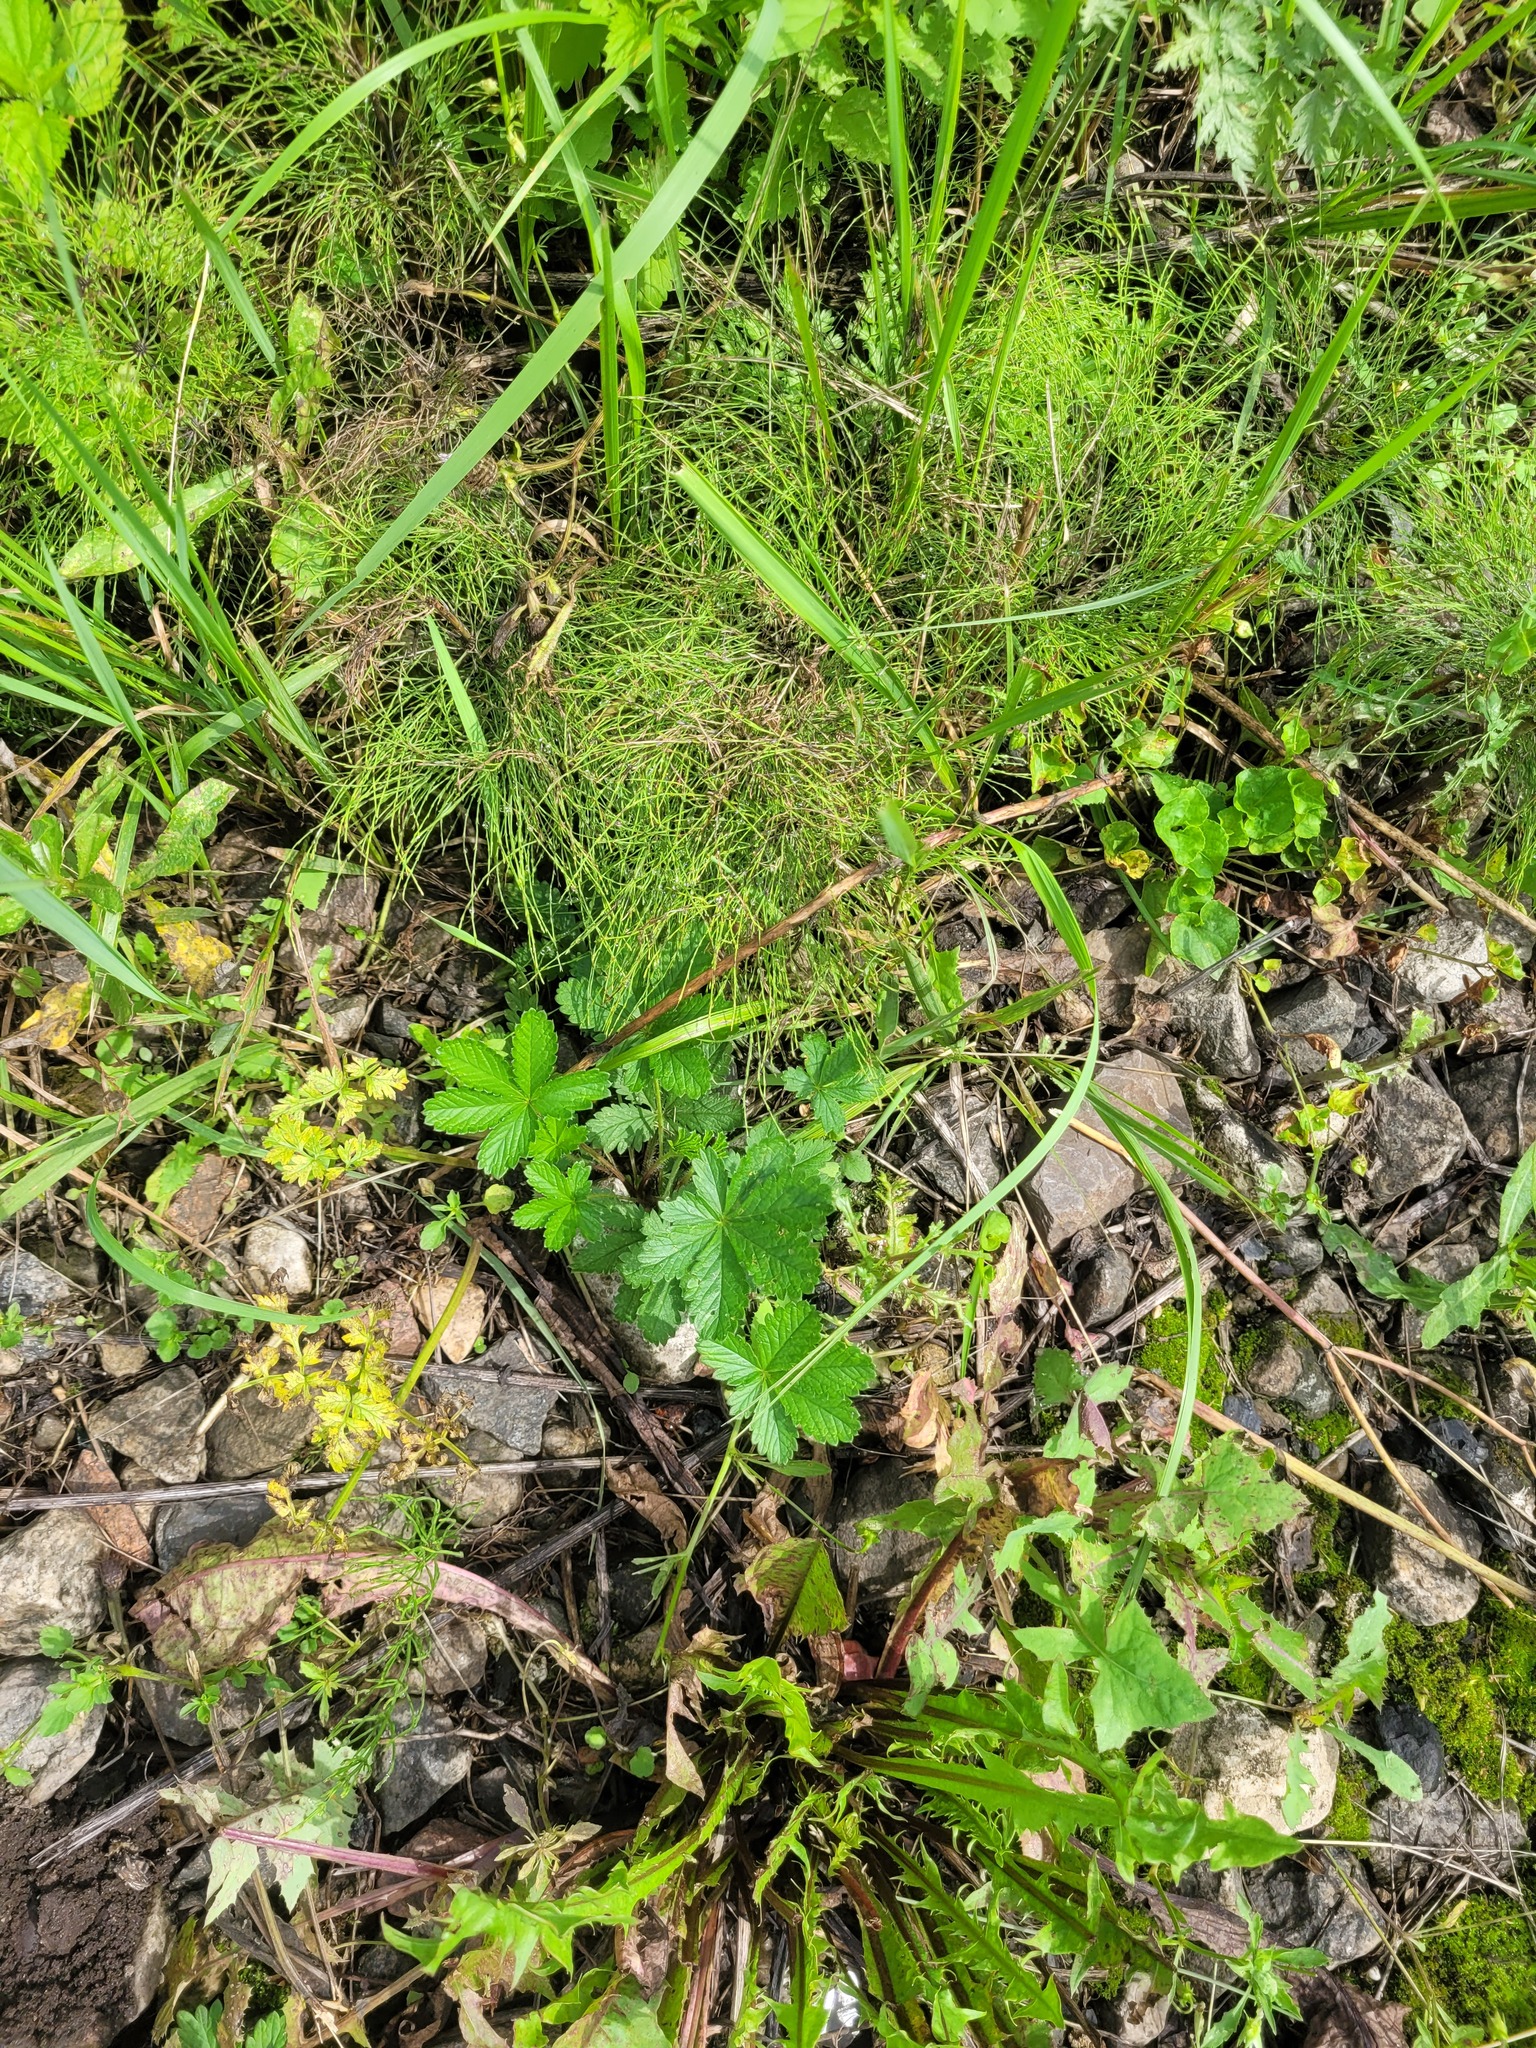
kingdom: Plantae
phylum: Tracheophyta
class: Magnoliopsida
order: Rosales
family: Rosaceae
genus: Potentilla
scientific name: Potentilla thuringiaca
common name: European cinquefoil
